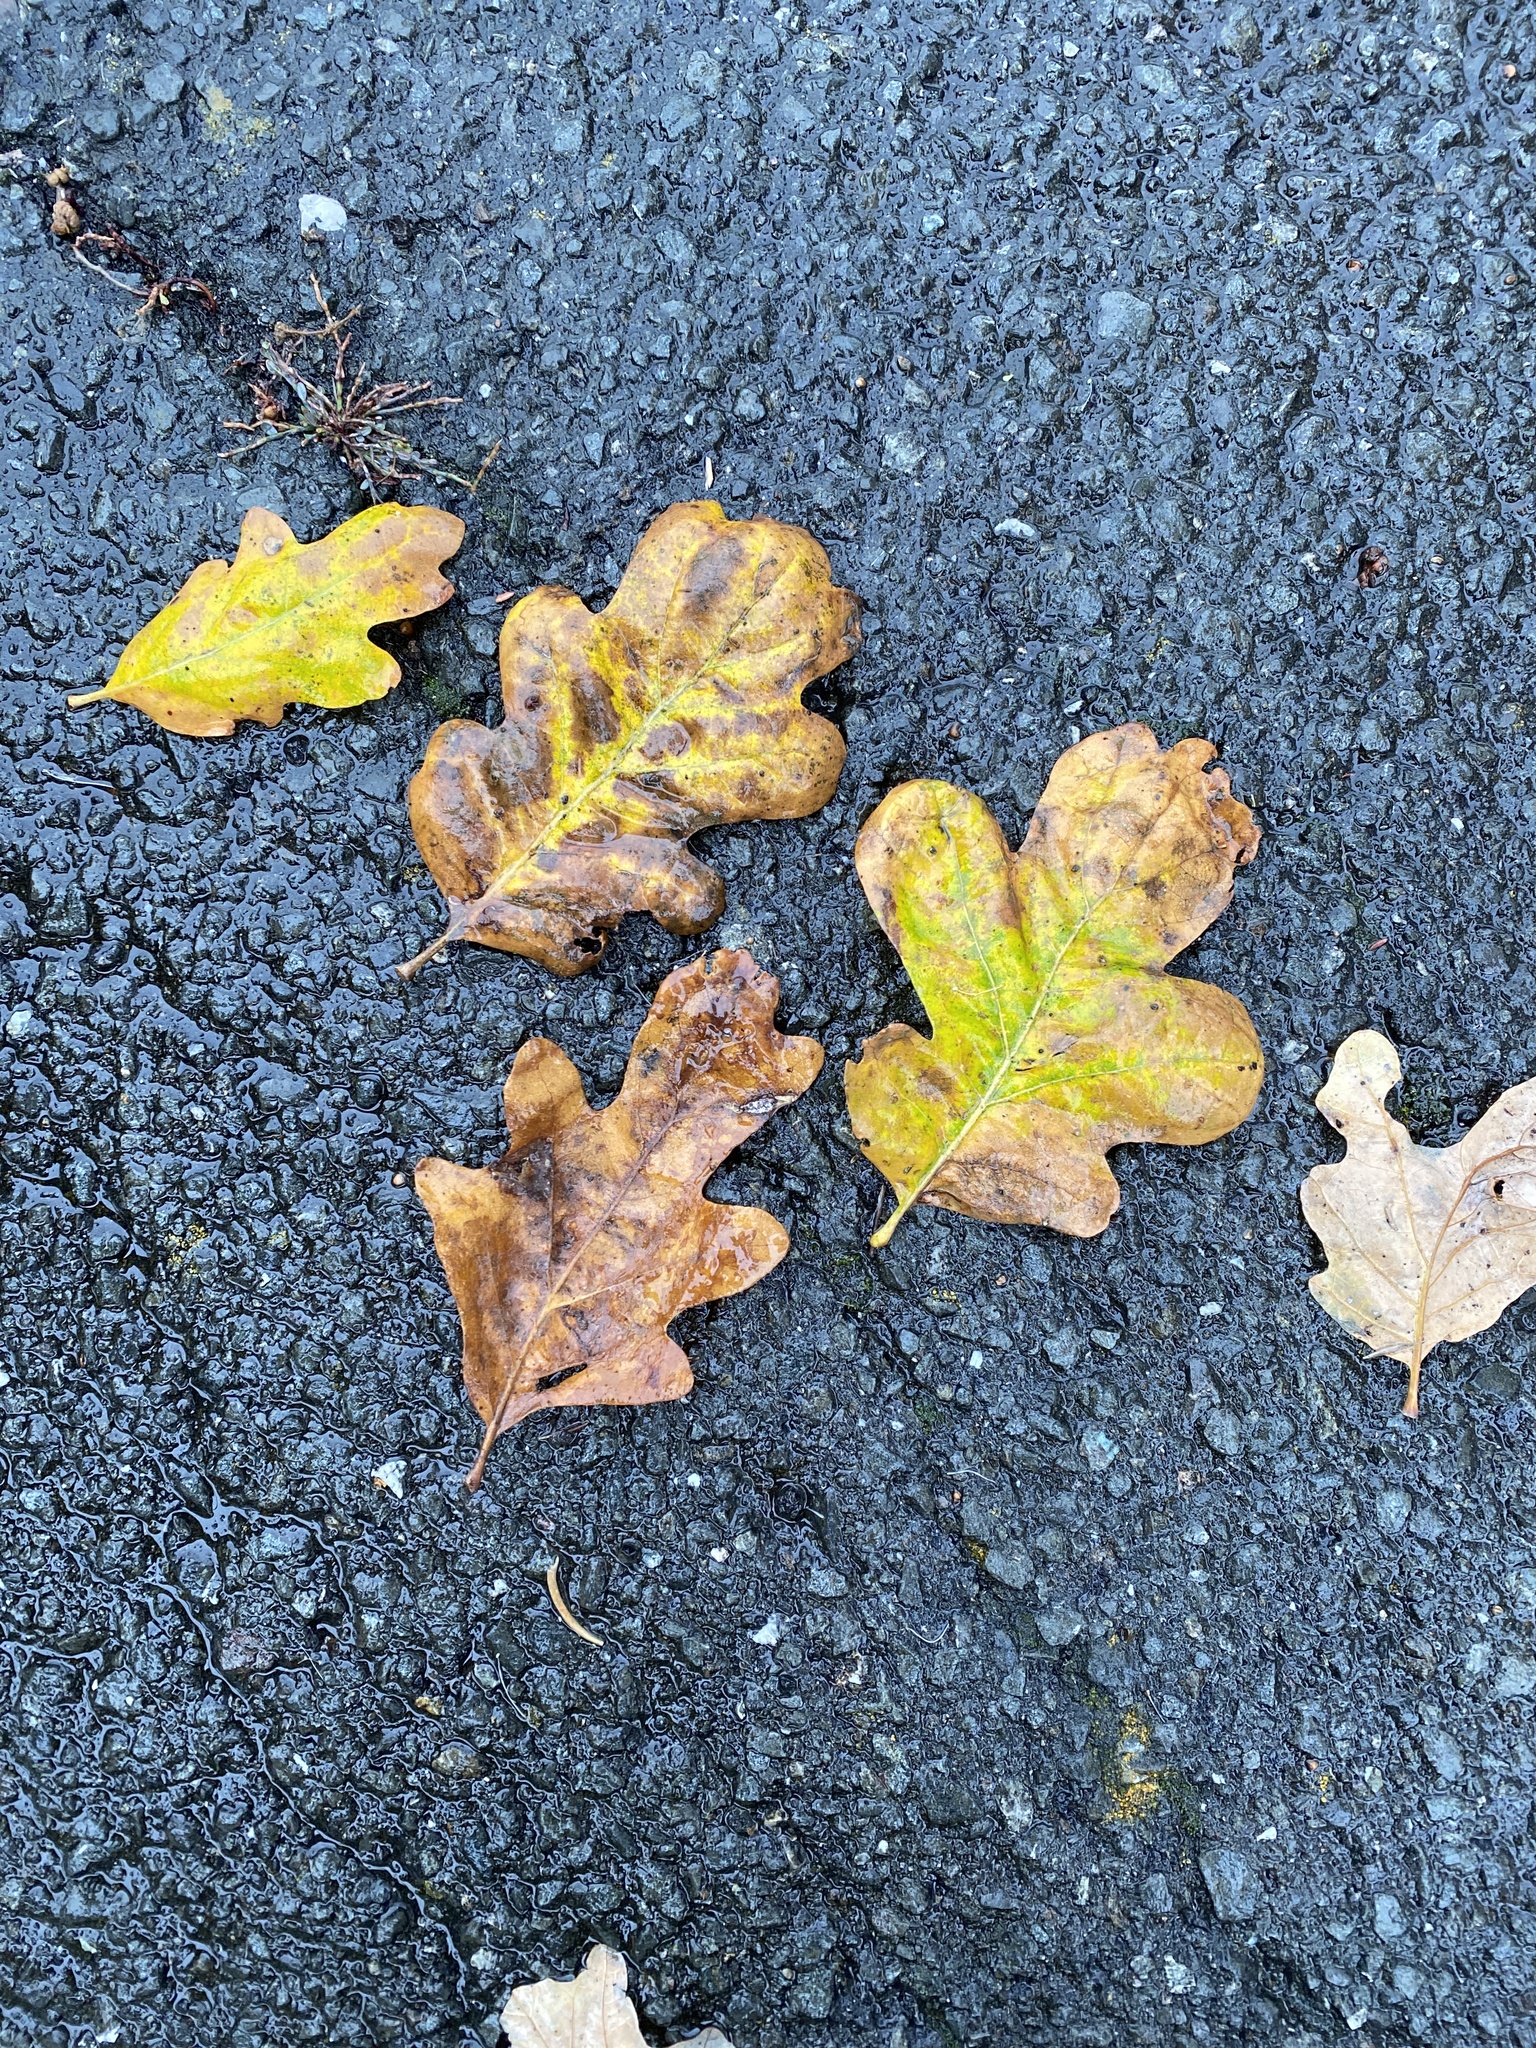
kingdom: Plantae
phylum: Tracheophyta
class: Magnoliopsida
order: Fagales
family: Fagaceae
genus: Quercus
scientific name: Quercus garryana
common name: Garry oak
